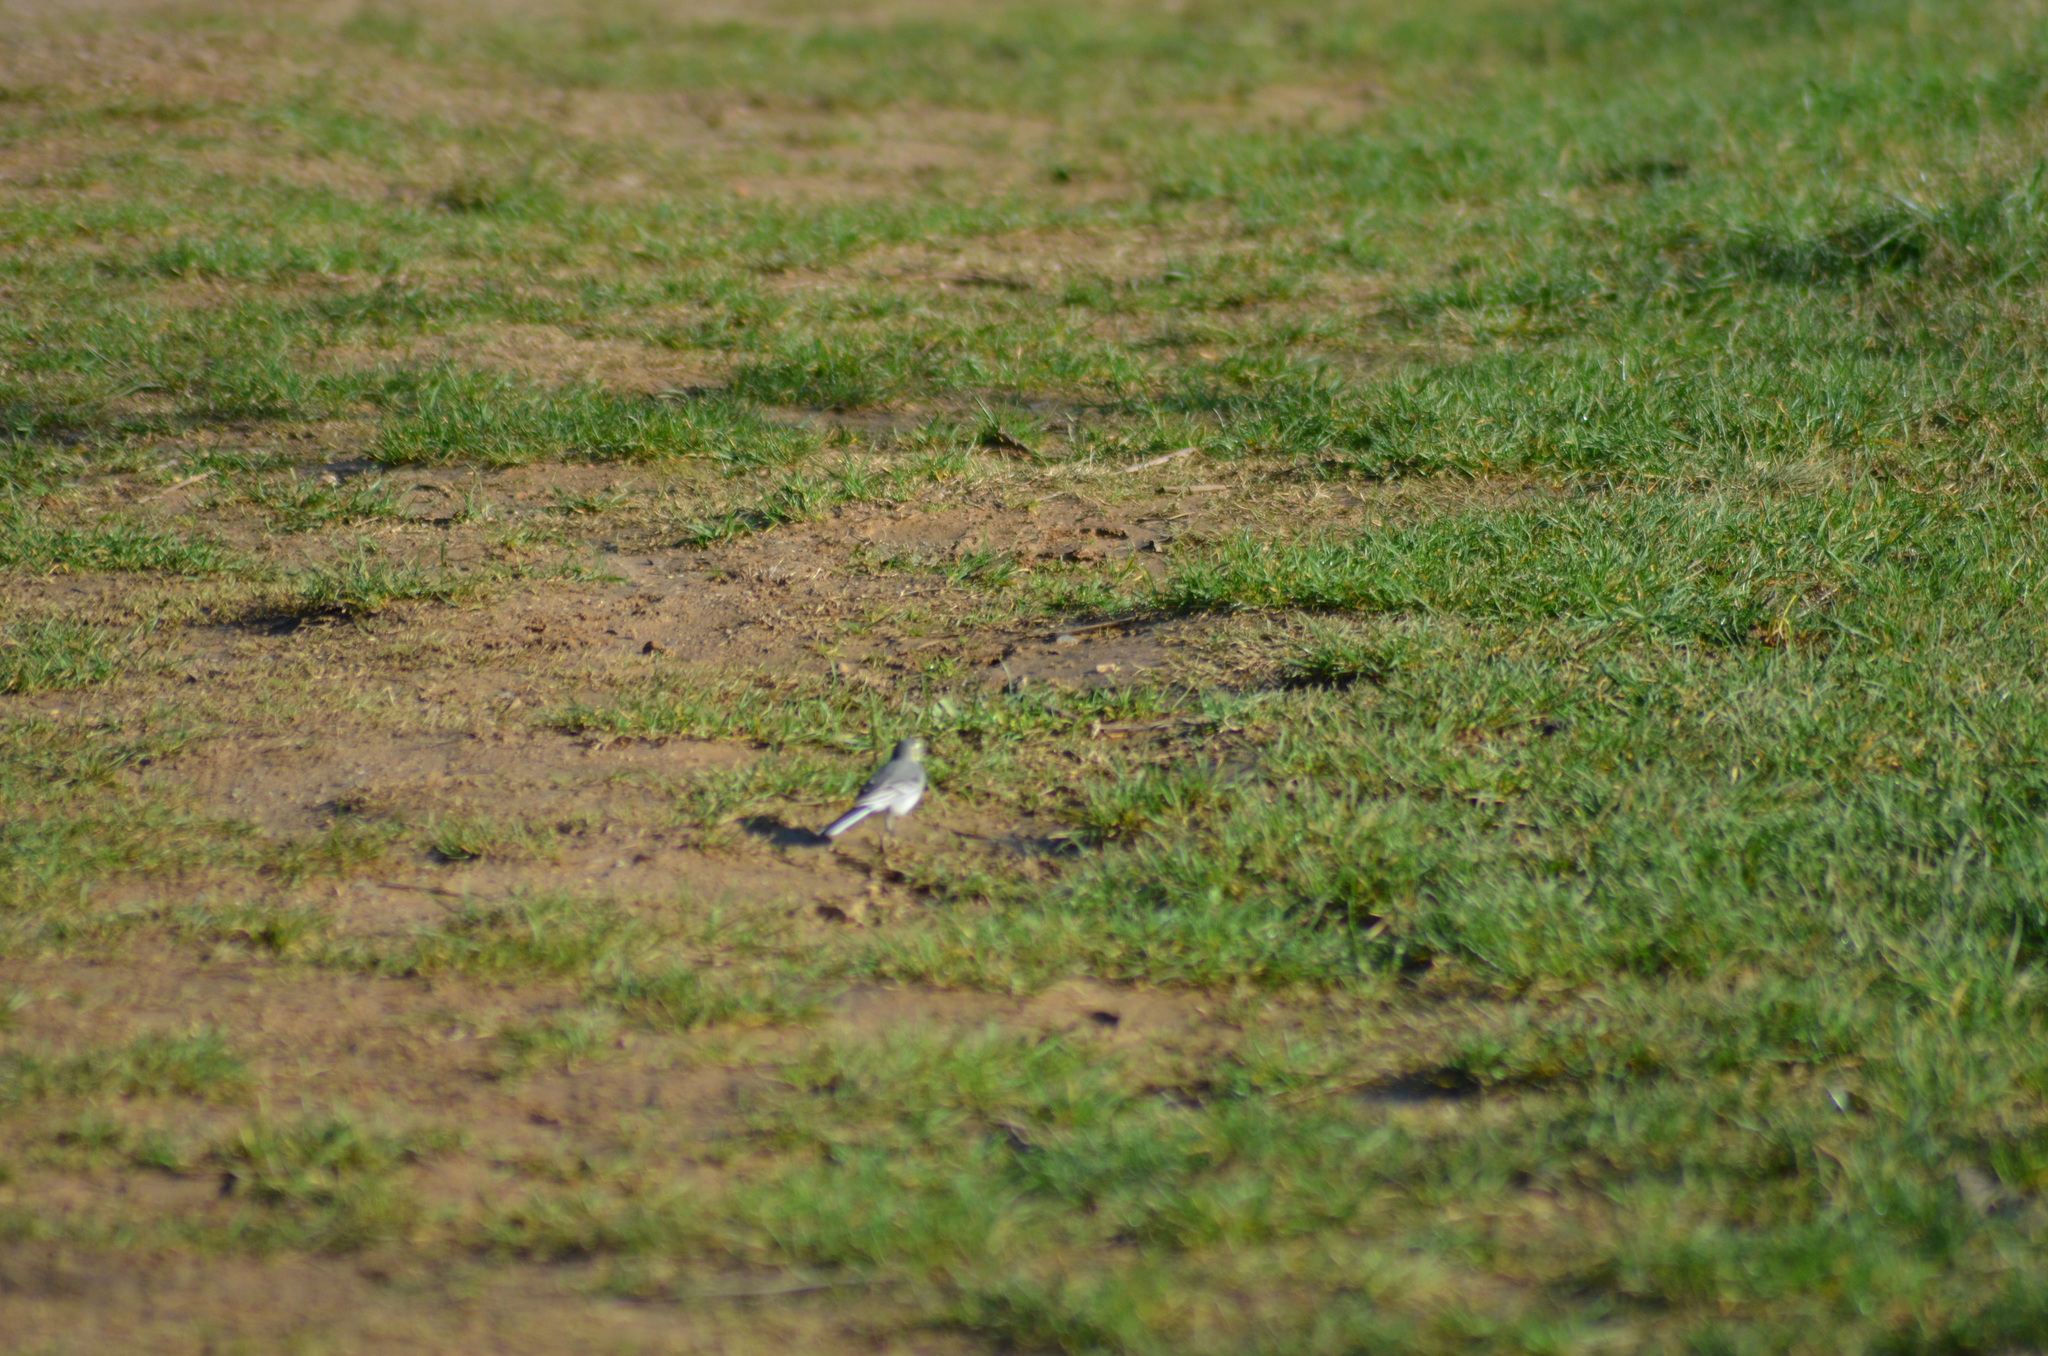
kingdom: Animalia
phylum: Chordata
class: Aves
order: Passeriformes
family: Motacillidae
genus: Motacilla
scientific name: Motacilla alba
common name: White wagtail
